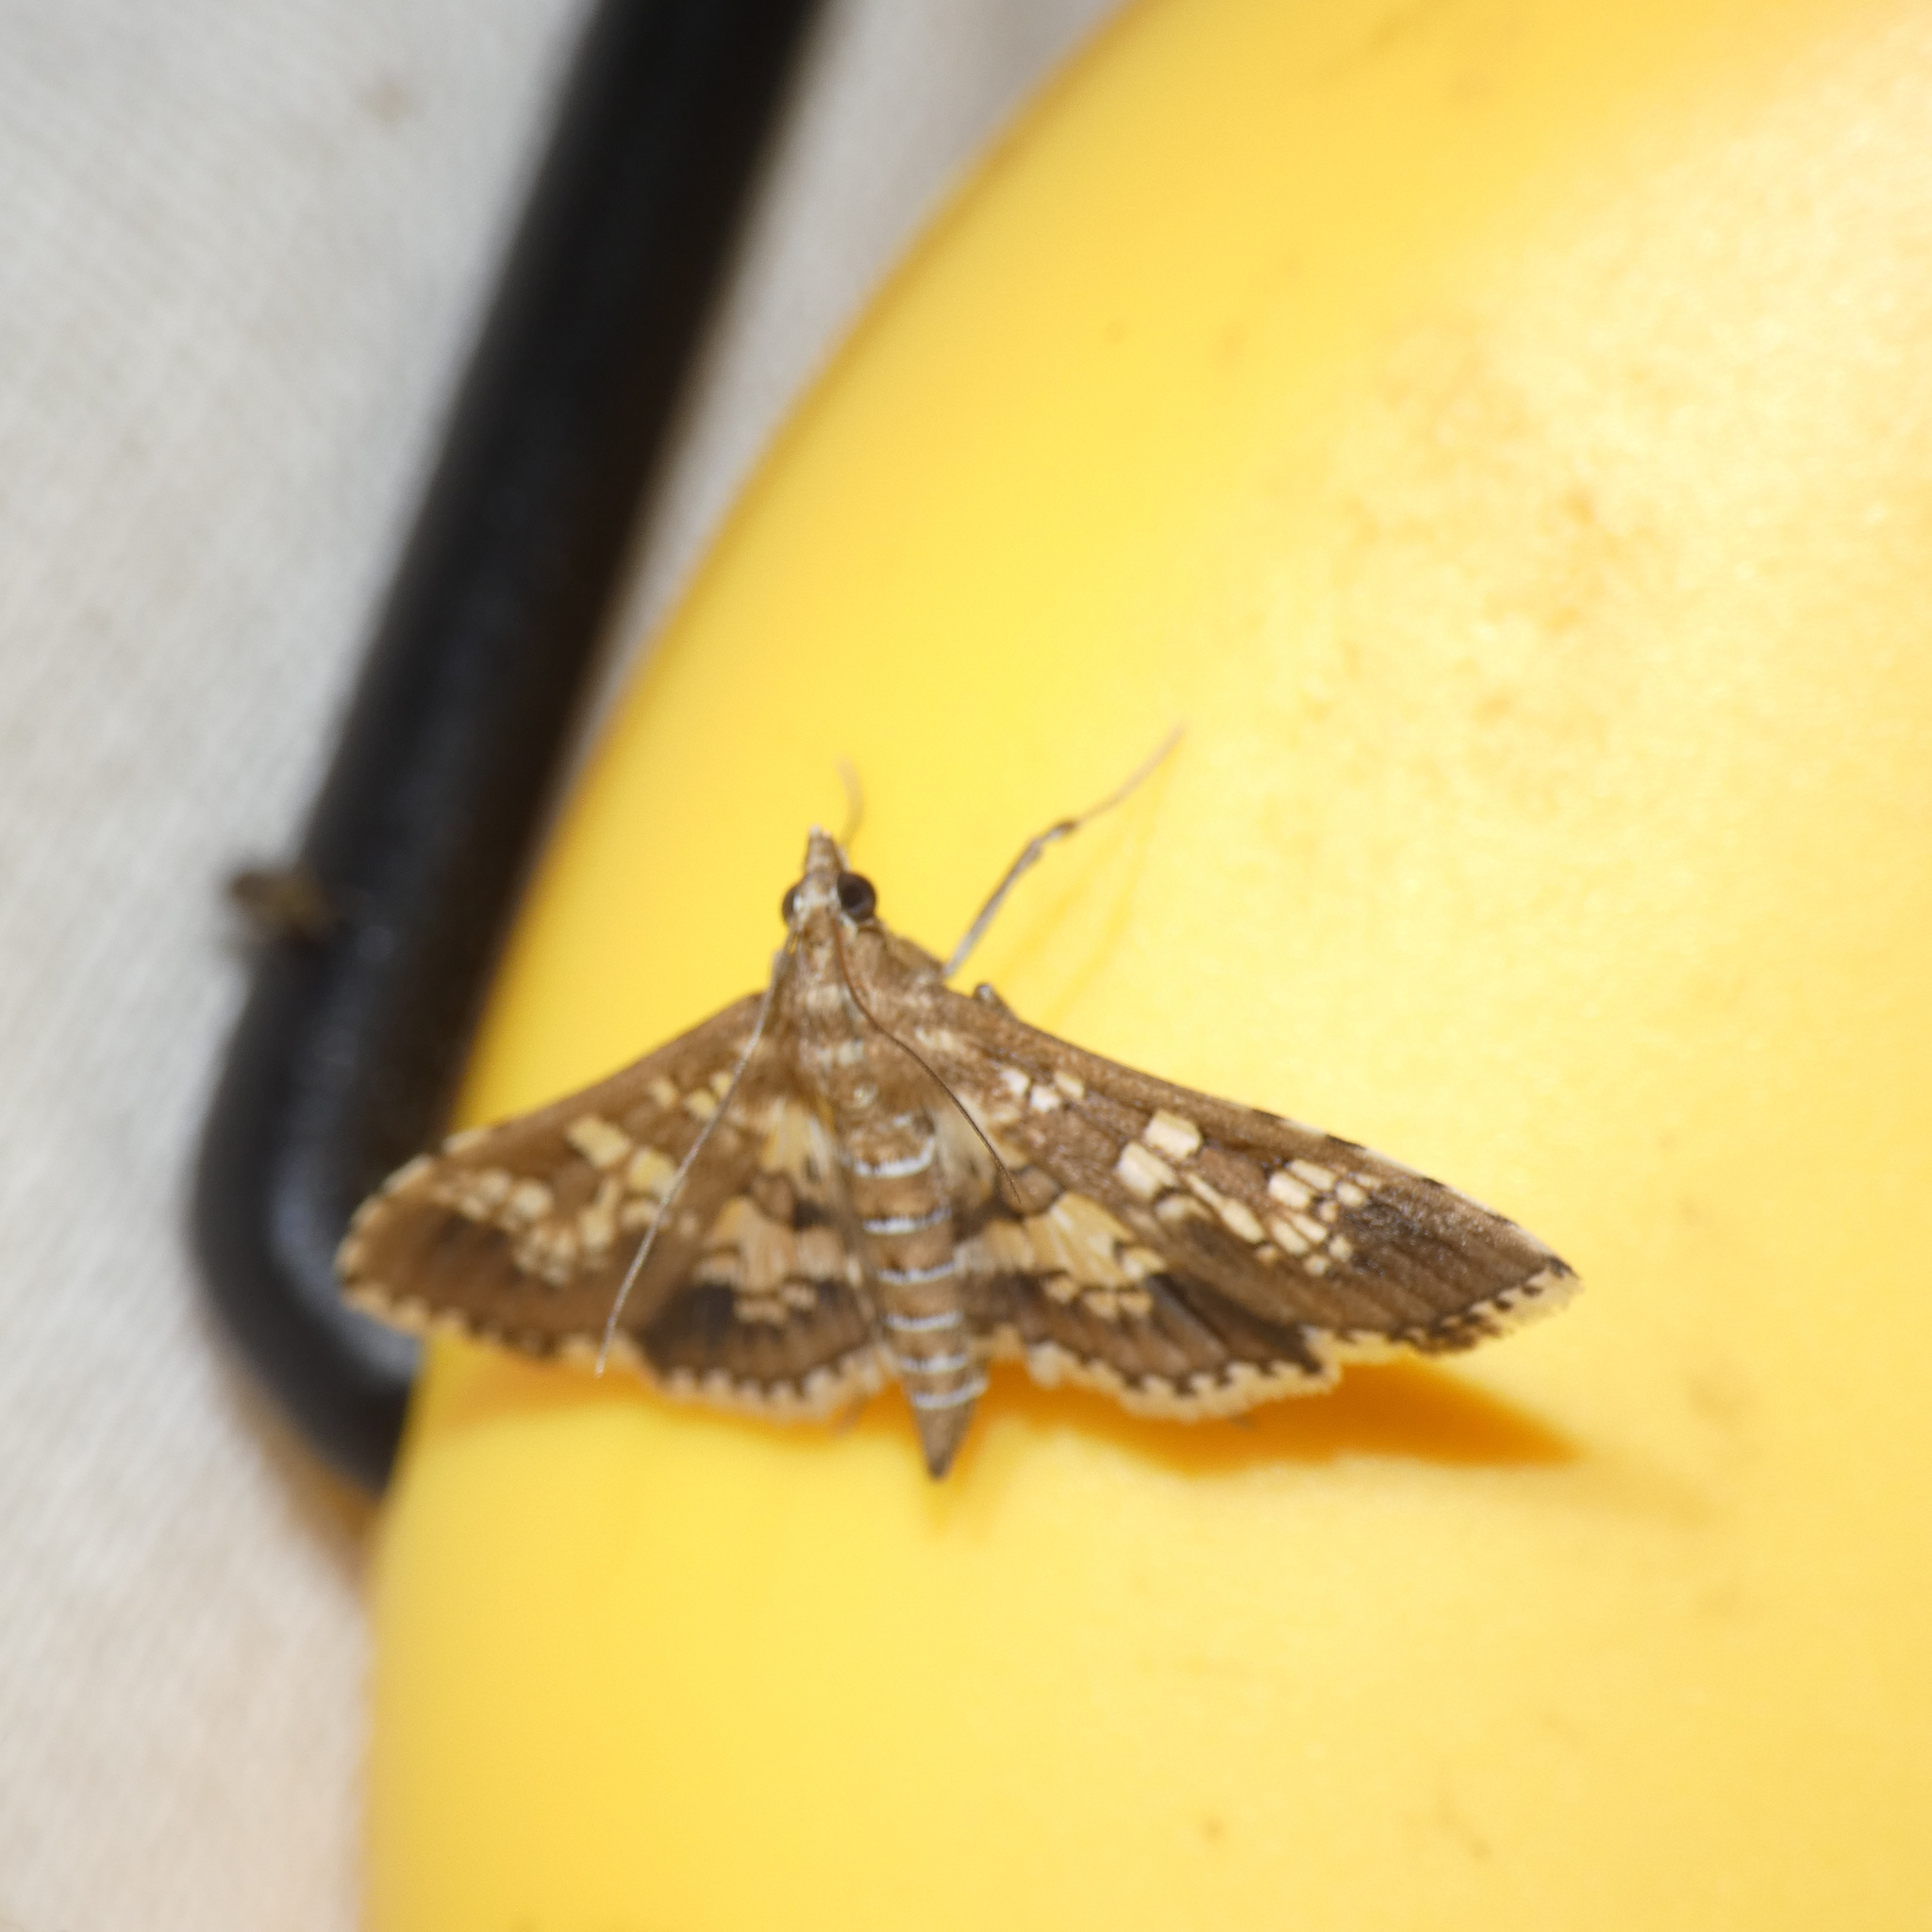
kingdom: Animalia
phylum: Arthropoda
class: Insecta
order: Lepidoptera
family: Crambidae
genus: Sameodes
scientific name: Sameodes cancellalis
